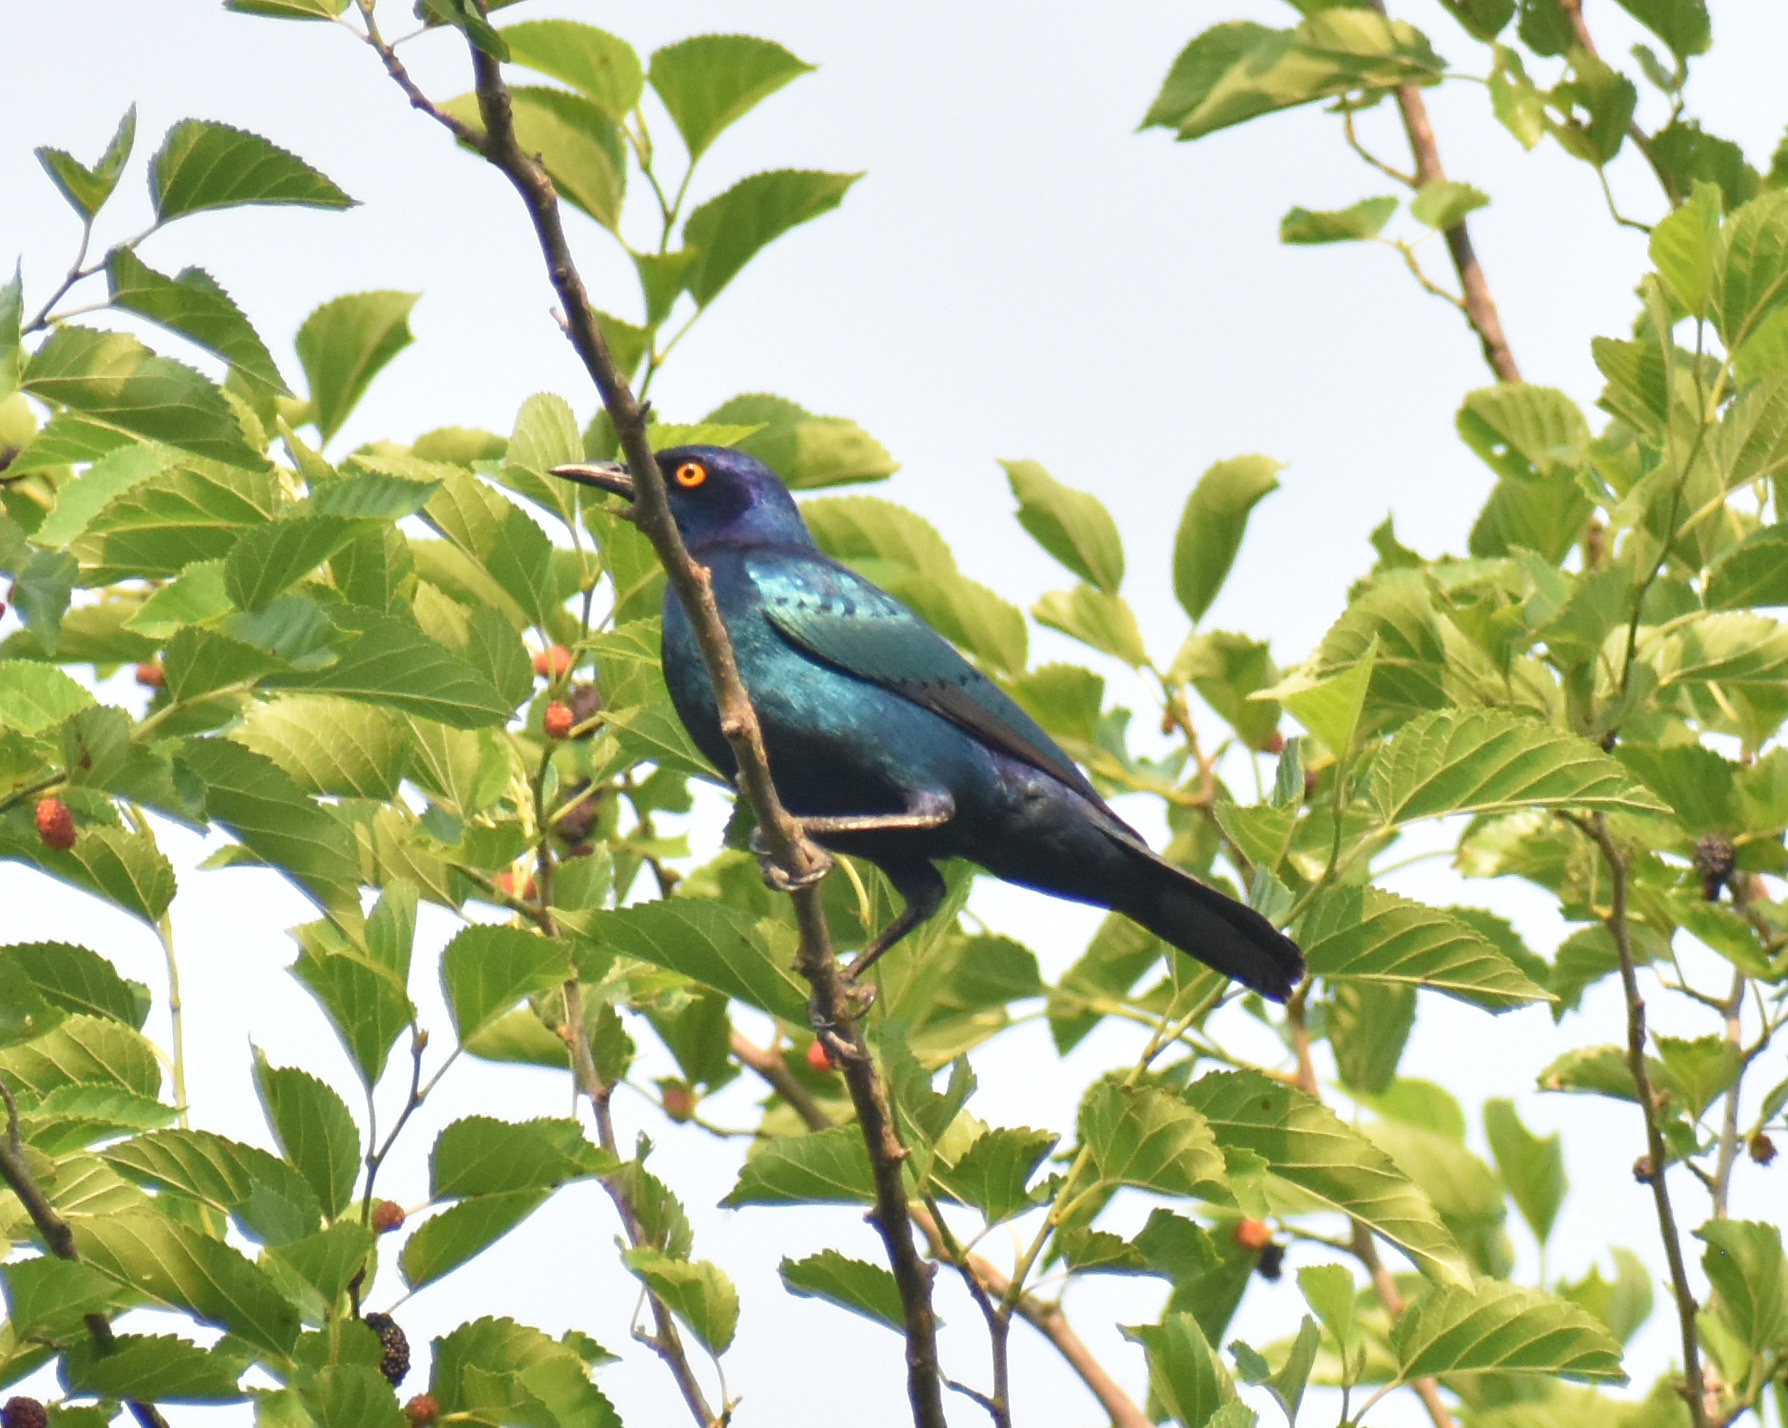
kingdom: Animalia
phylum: Chordata
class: Aves
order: Passeriformes
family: Sturnidae
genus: Lamprotornis
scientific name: Lamprotornis nitens
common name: Cape starling
